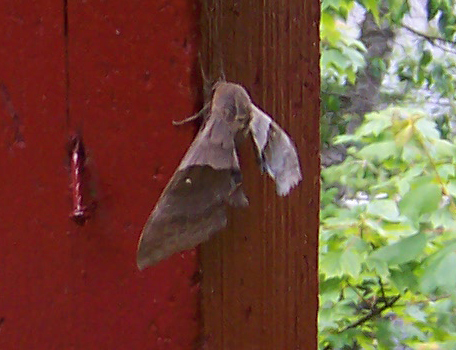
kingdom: Animalia
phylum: Arthropoda
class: Insecta
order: Lepidoptera
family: Sphingidae
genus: Pachysphinx
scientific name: Pachysphinx modesta
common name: Big poplar sphinx
